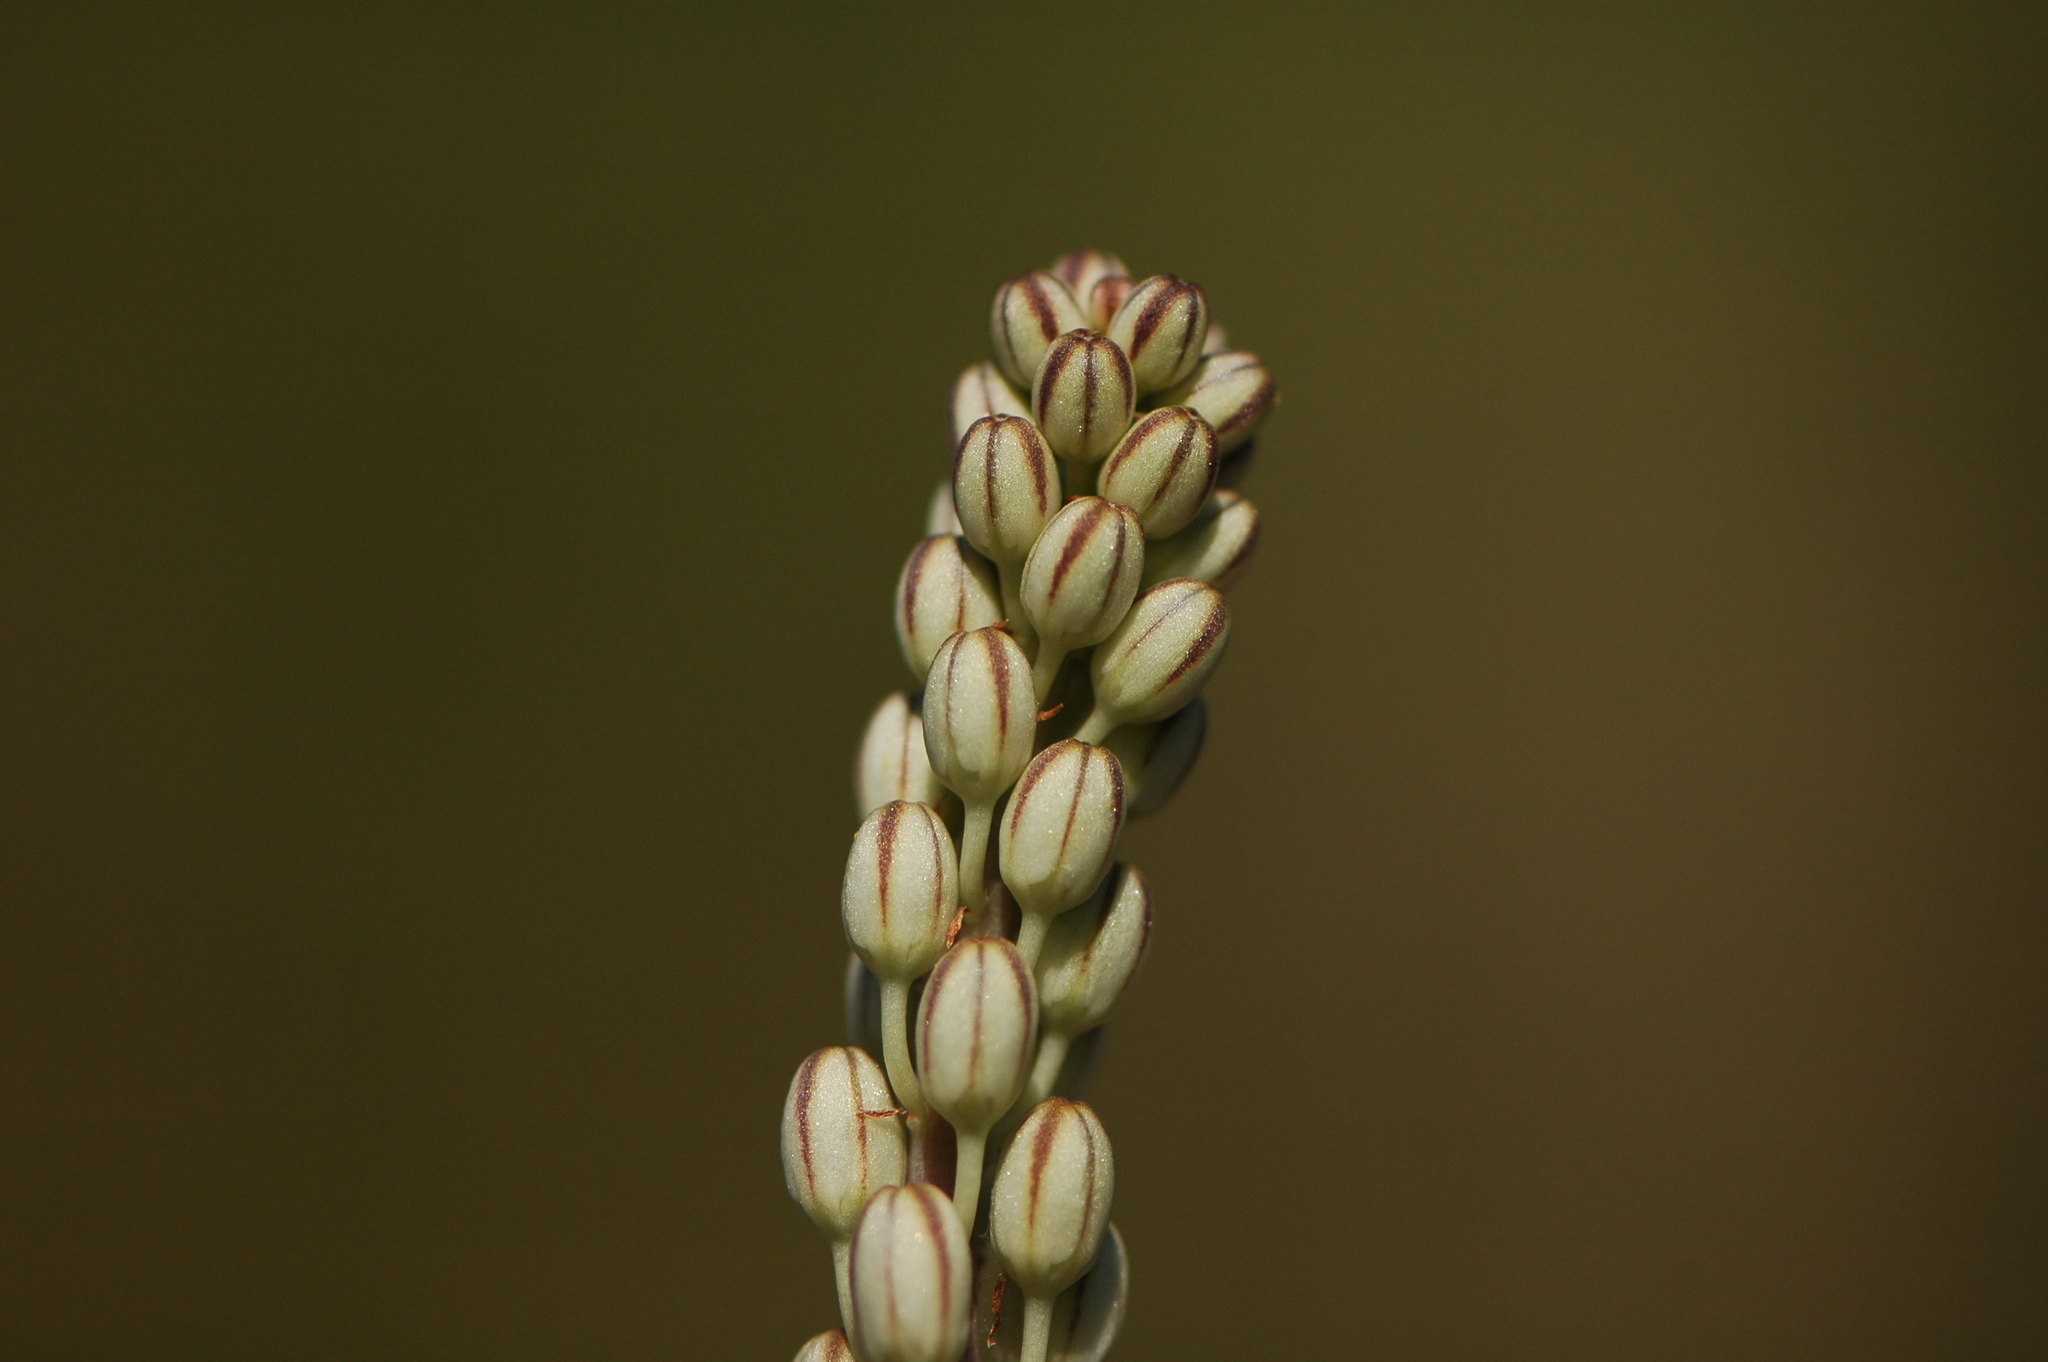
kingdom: Plantae
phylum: Tracheophyta
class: Liliopsida
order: Asparagales
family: Asparagaceae
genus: Drimia
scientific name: Drimia maritima
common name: Maritime squill
